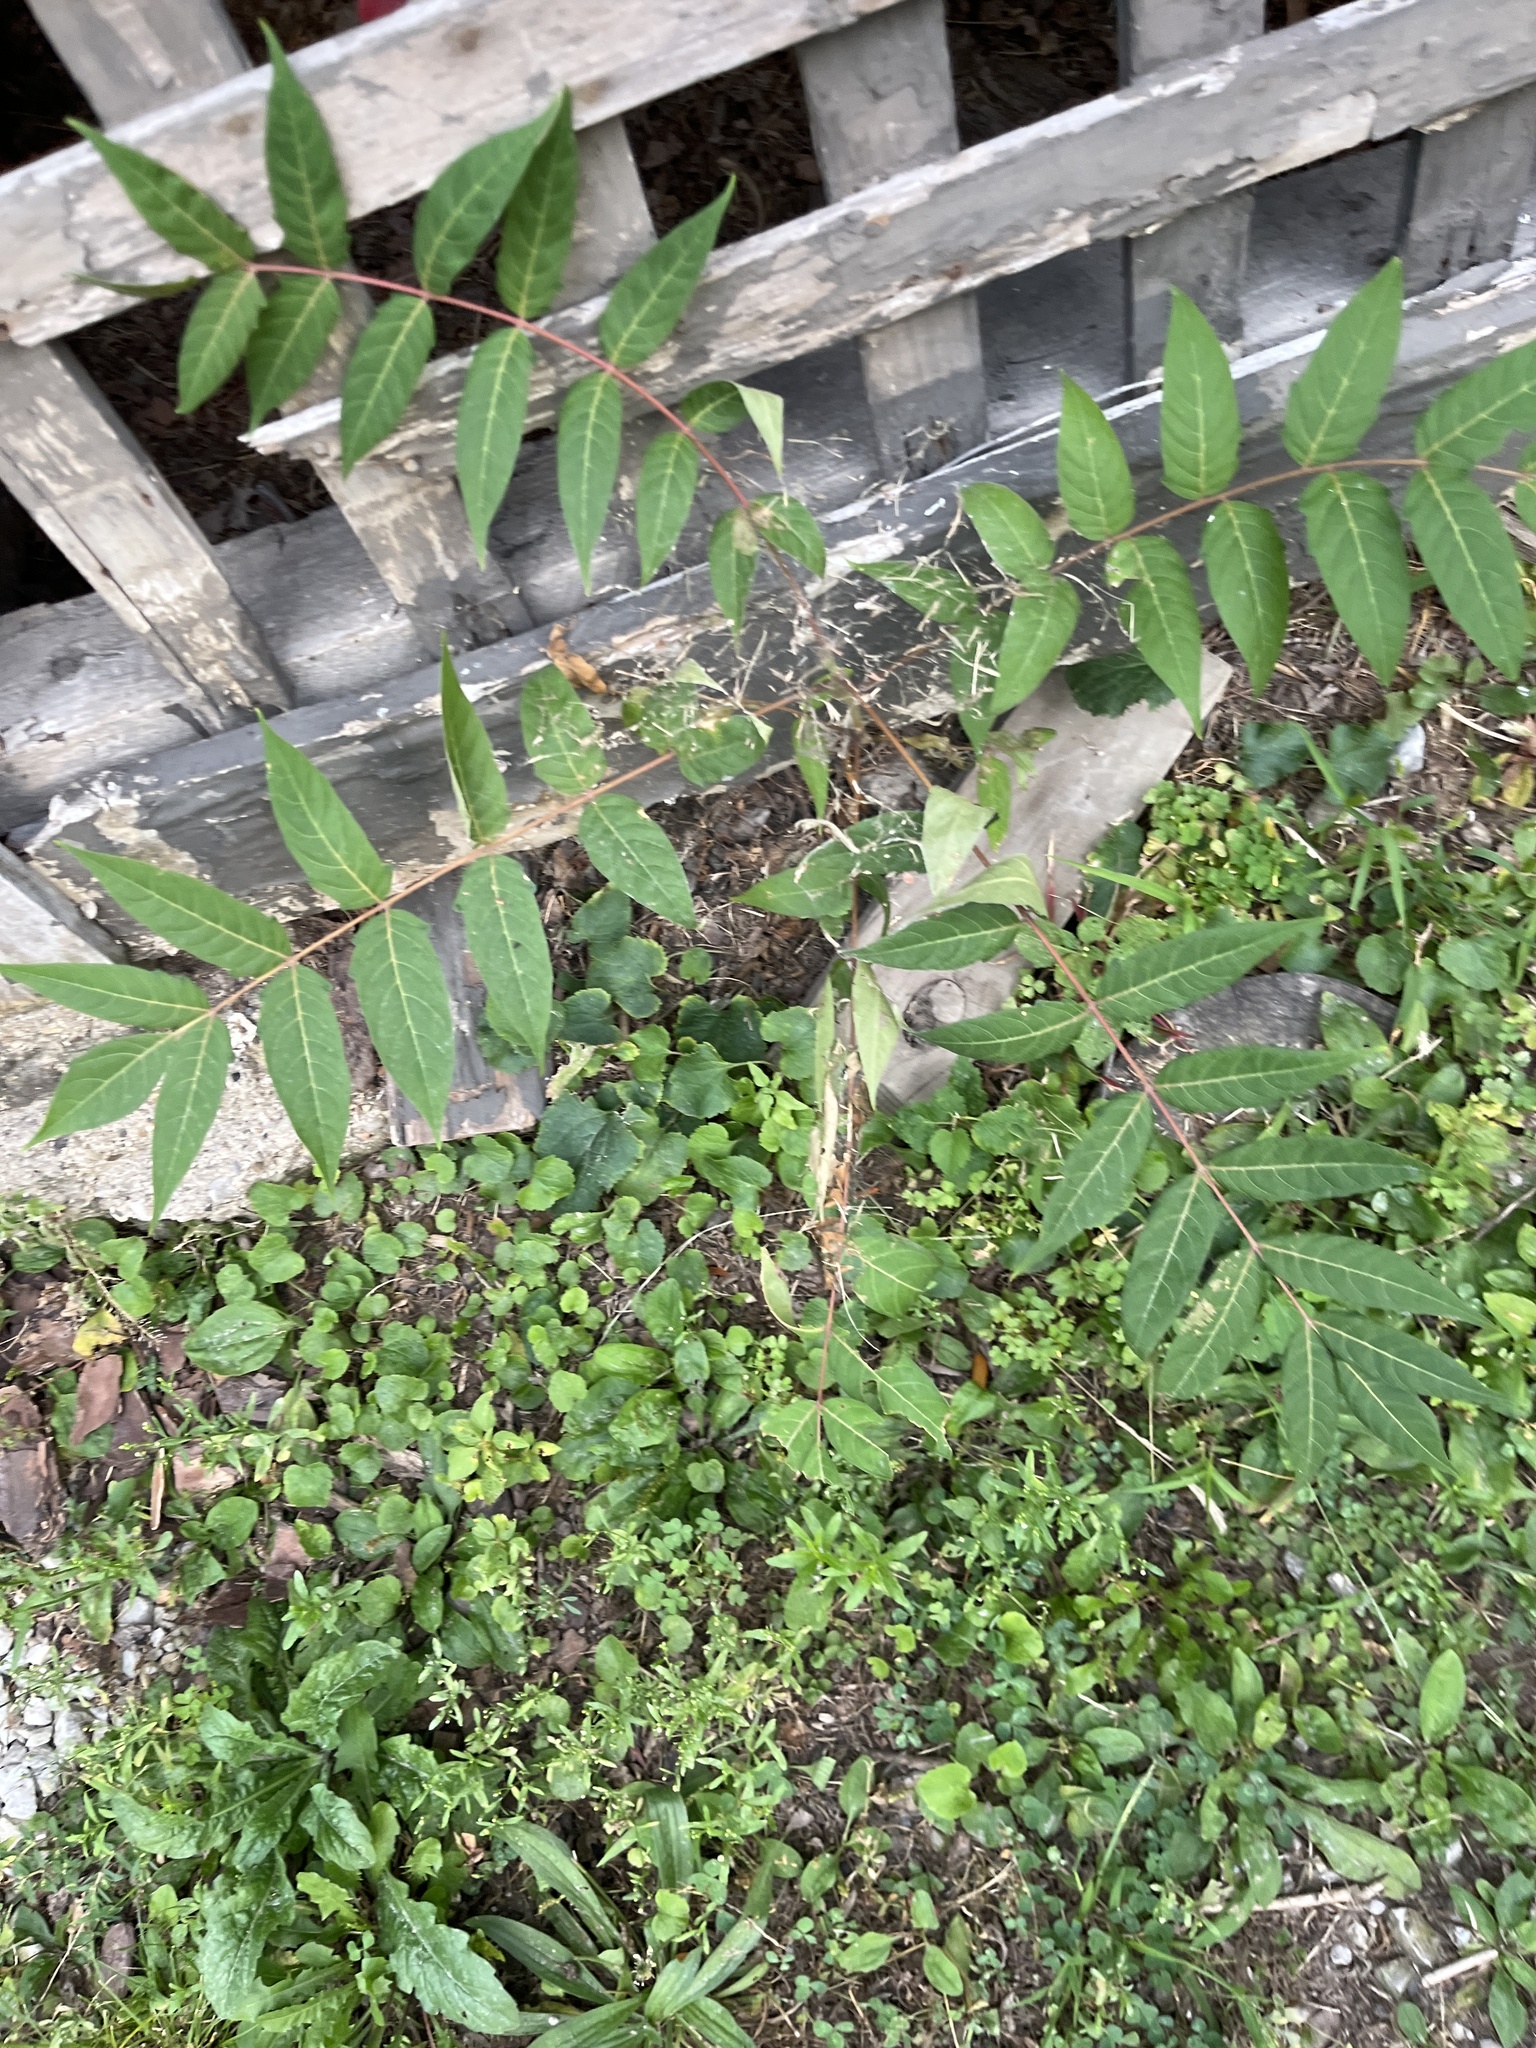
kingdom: Plantae
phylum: Tracheophyta
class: Magnoliopsida
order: Sapindales
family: Simaroubaceae
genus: Ailanthus
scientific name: Ailanthus altissima
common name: Tree-of-heaven
